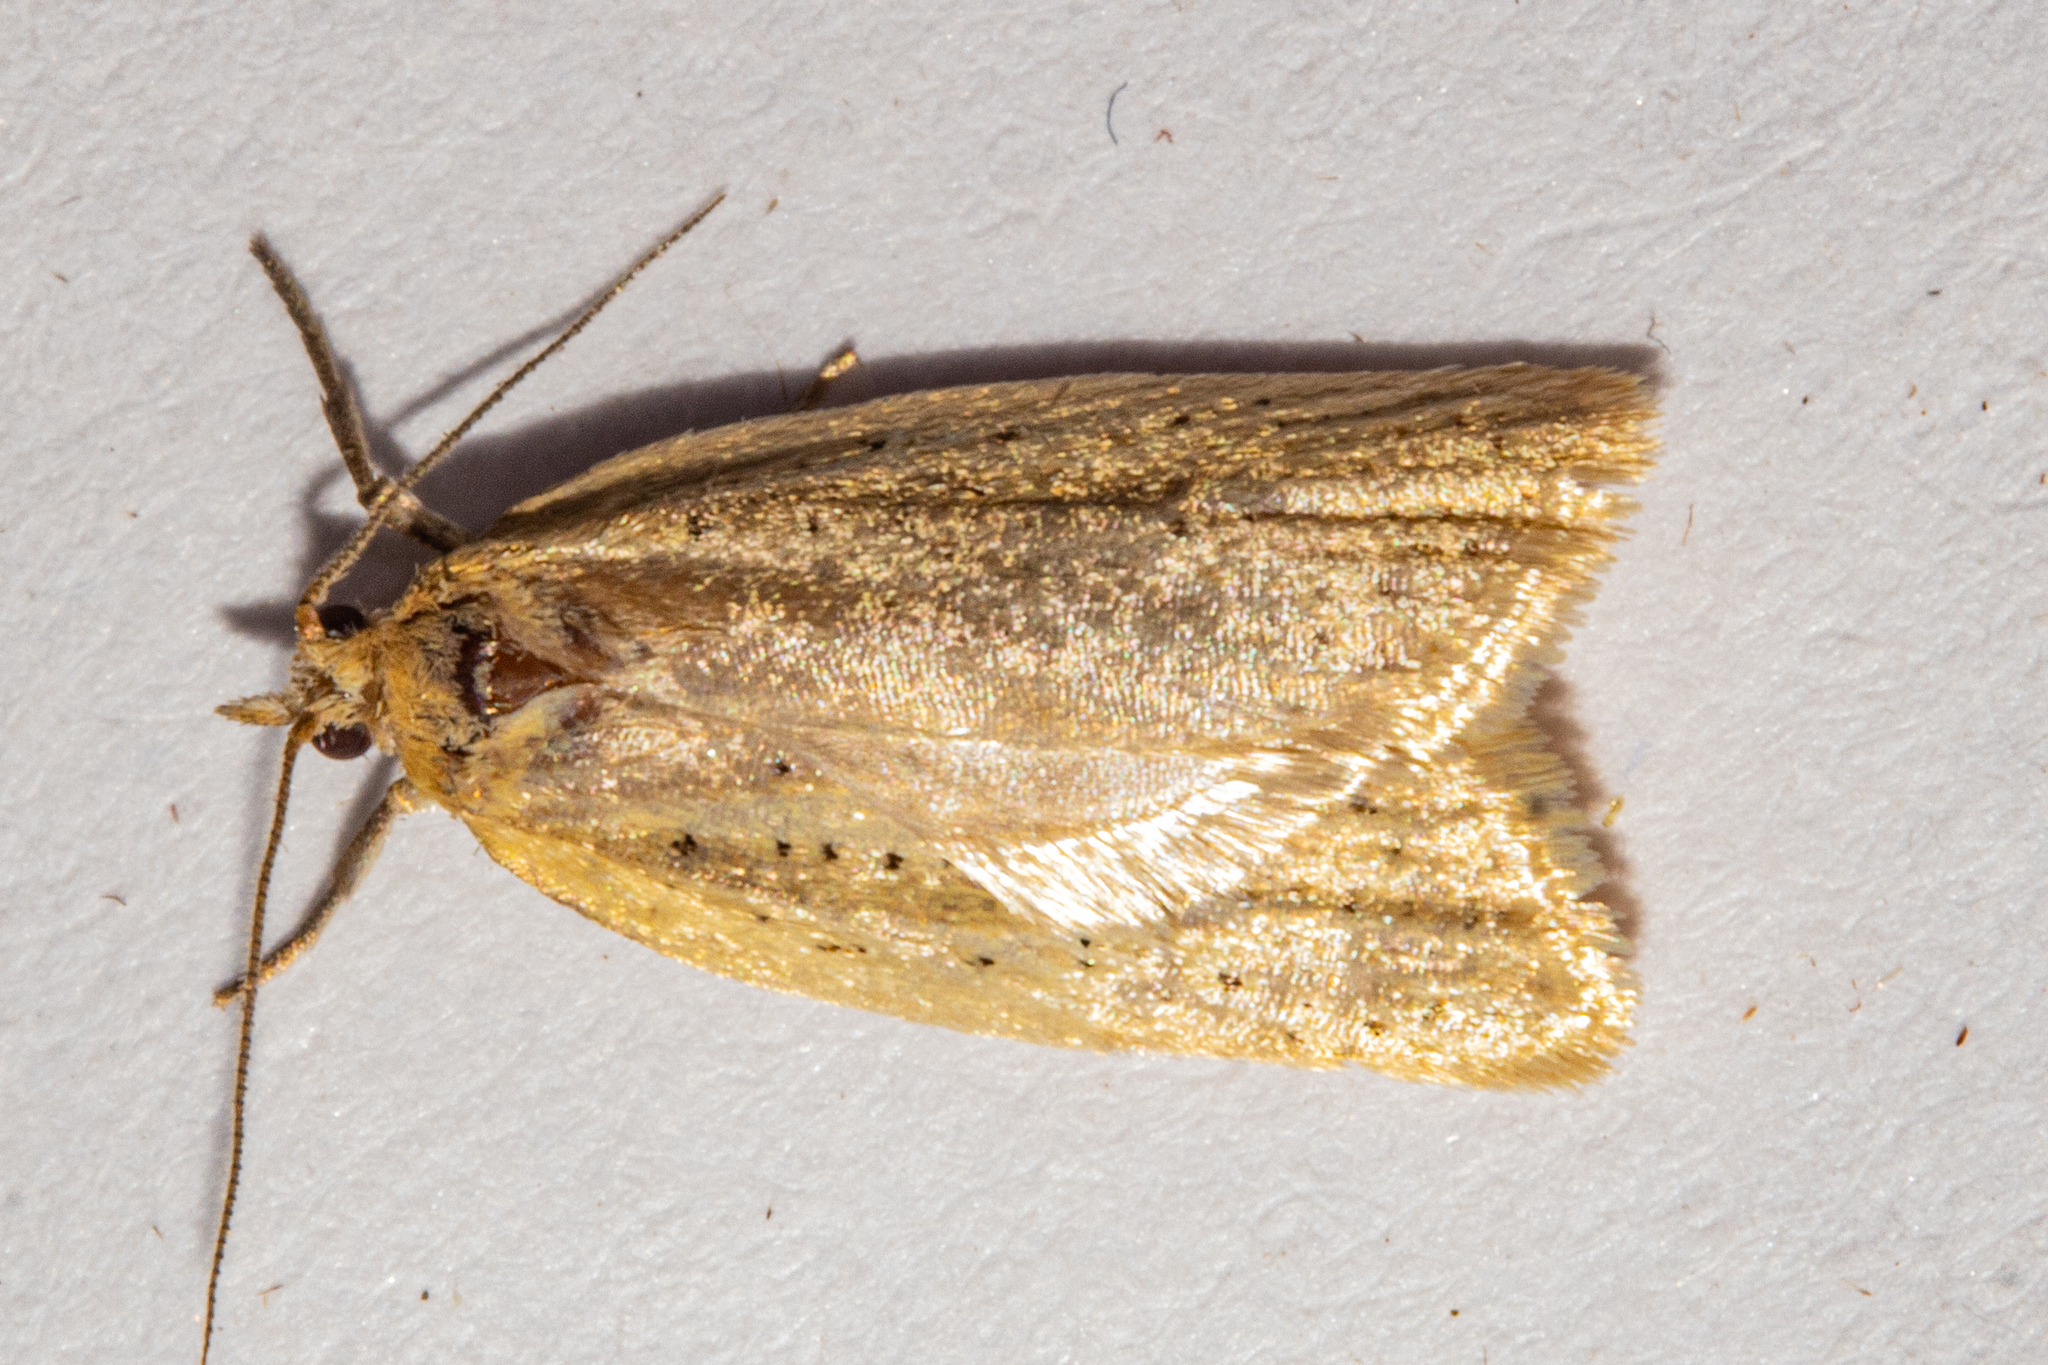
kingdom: Animalia
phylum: Arthropoda
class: Insecta
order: Lepidoptera
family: Tortricidae
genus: Clepsis
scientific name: Clepsis
